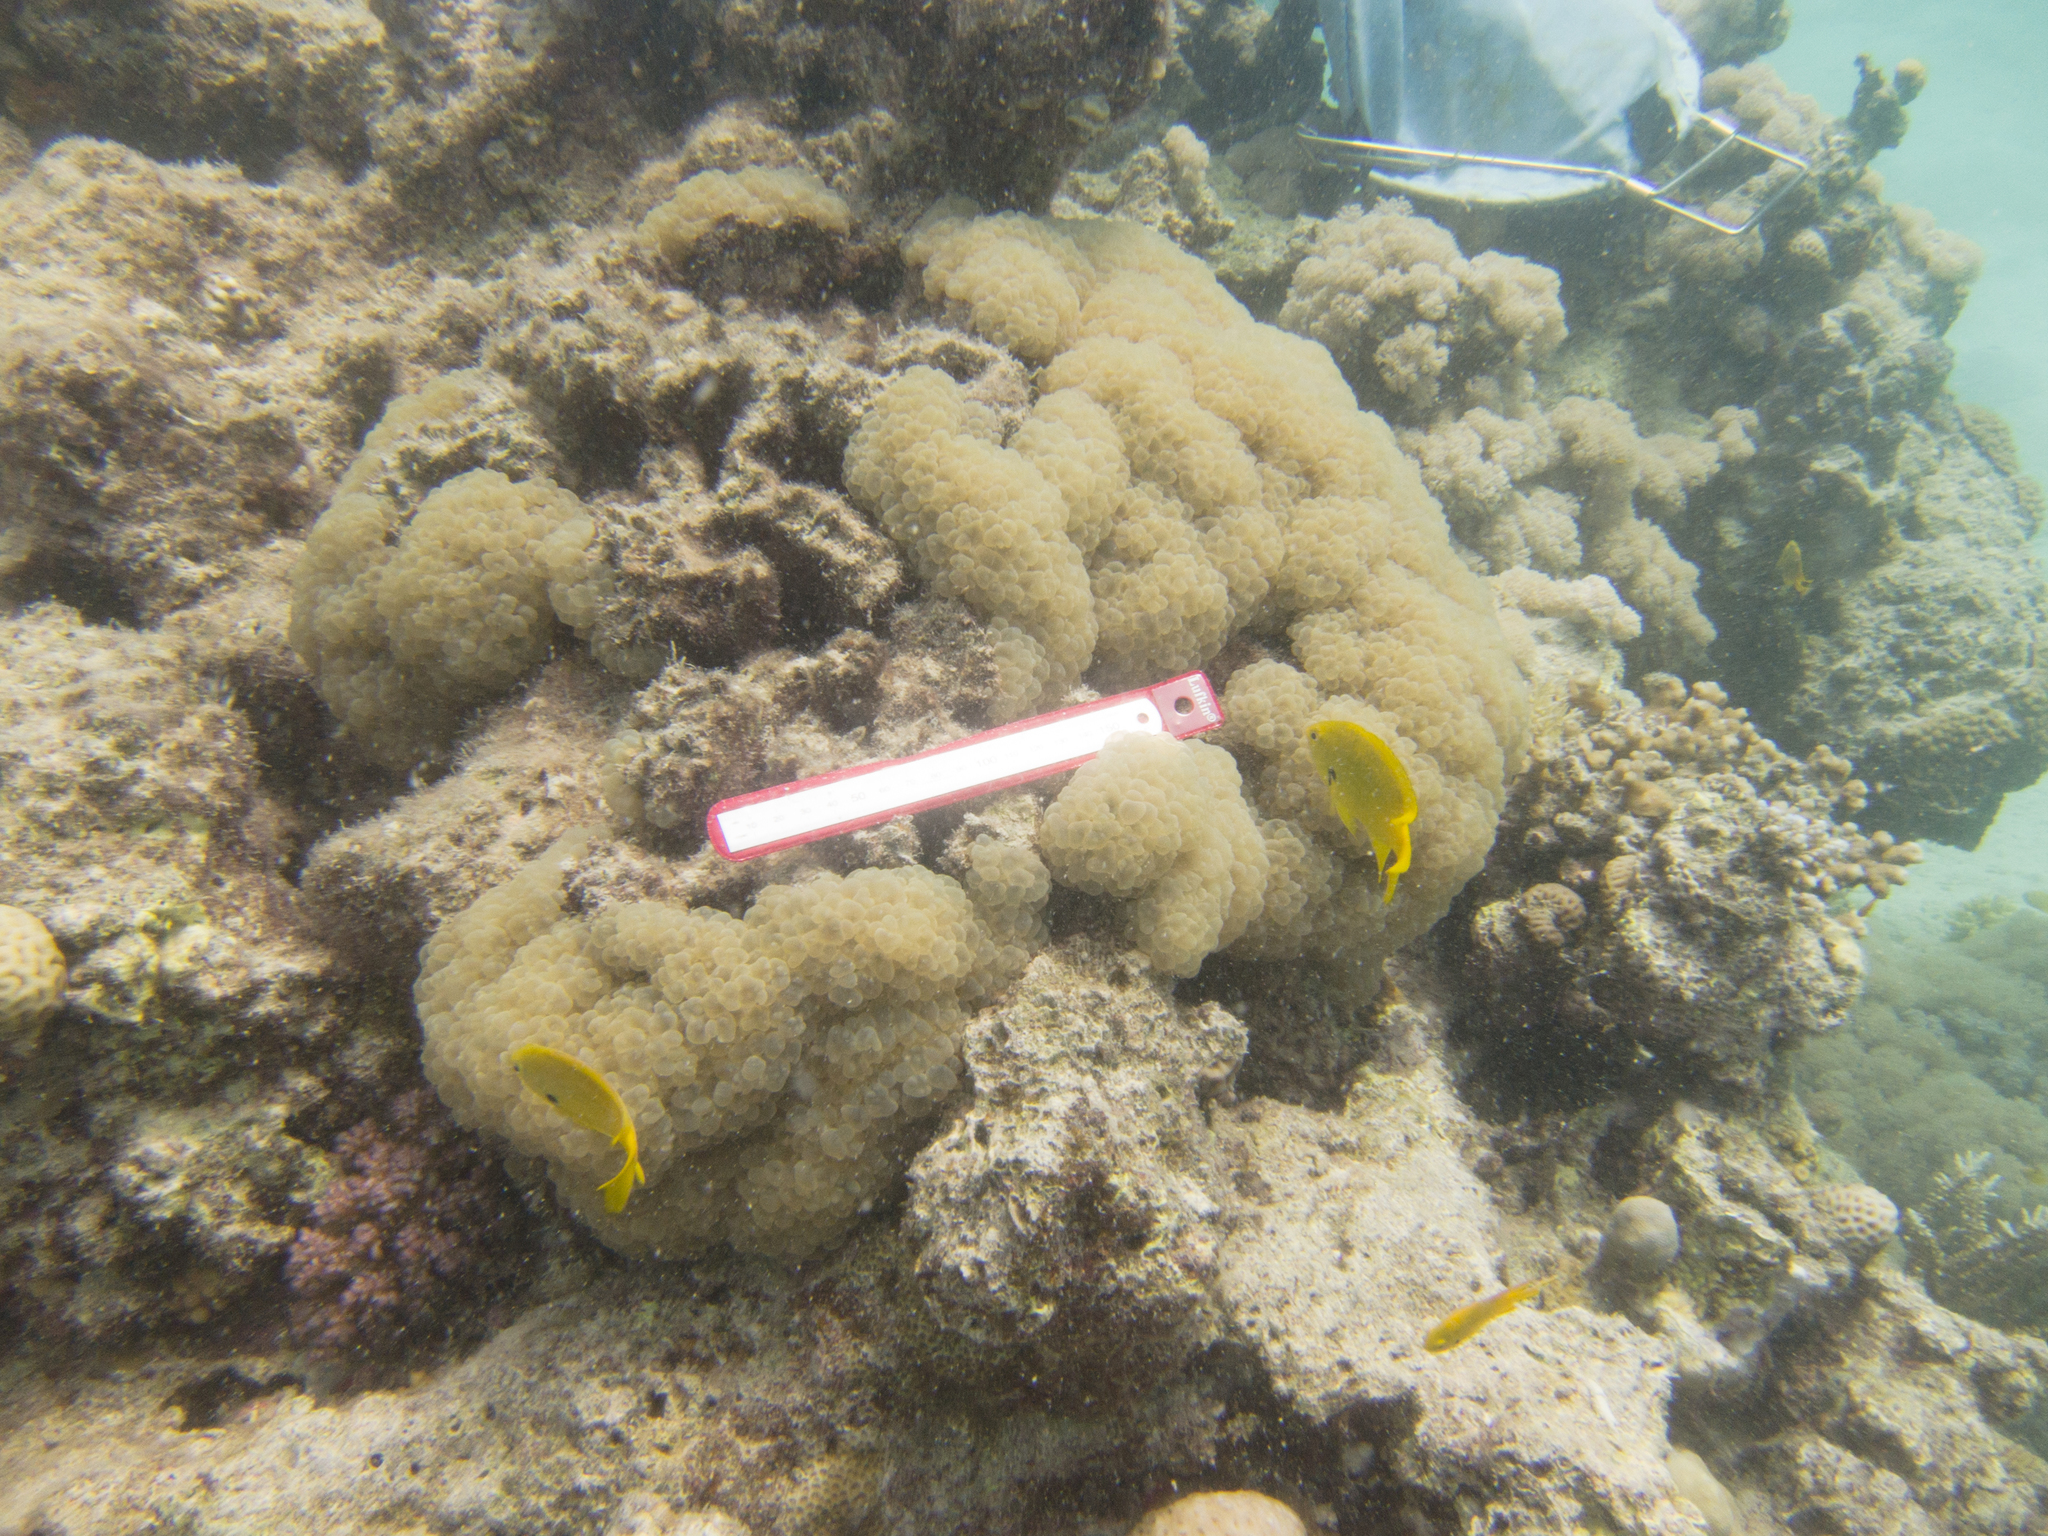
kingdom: Animalia
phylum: Chordata
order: Perciformes
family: Pomacentridae
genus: Pomacentrus
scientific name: Pomacentrus sulfureus
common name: Sulfur damsel
